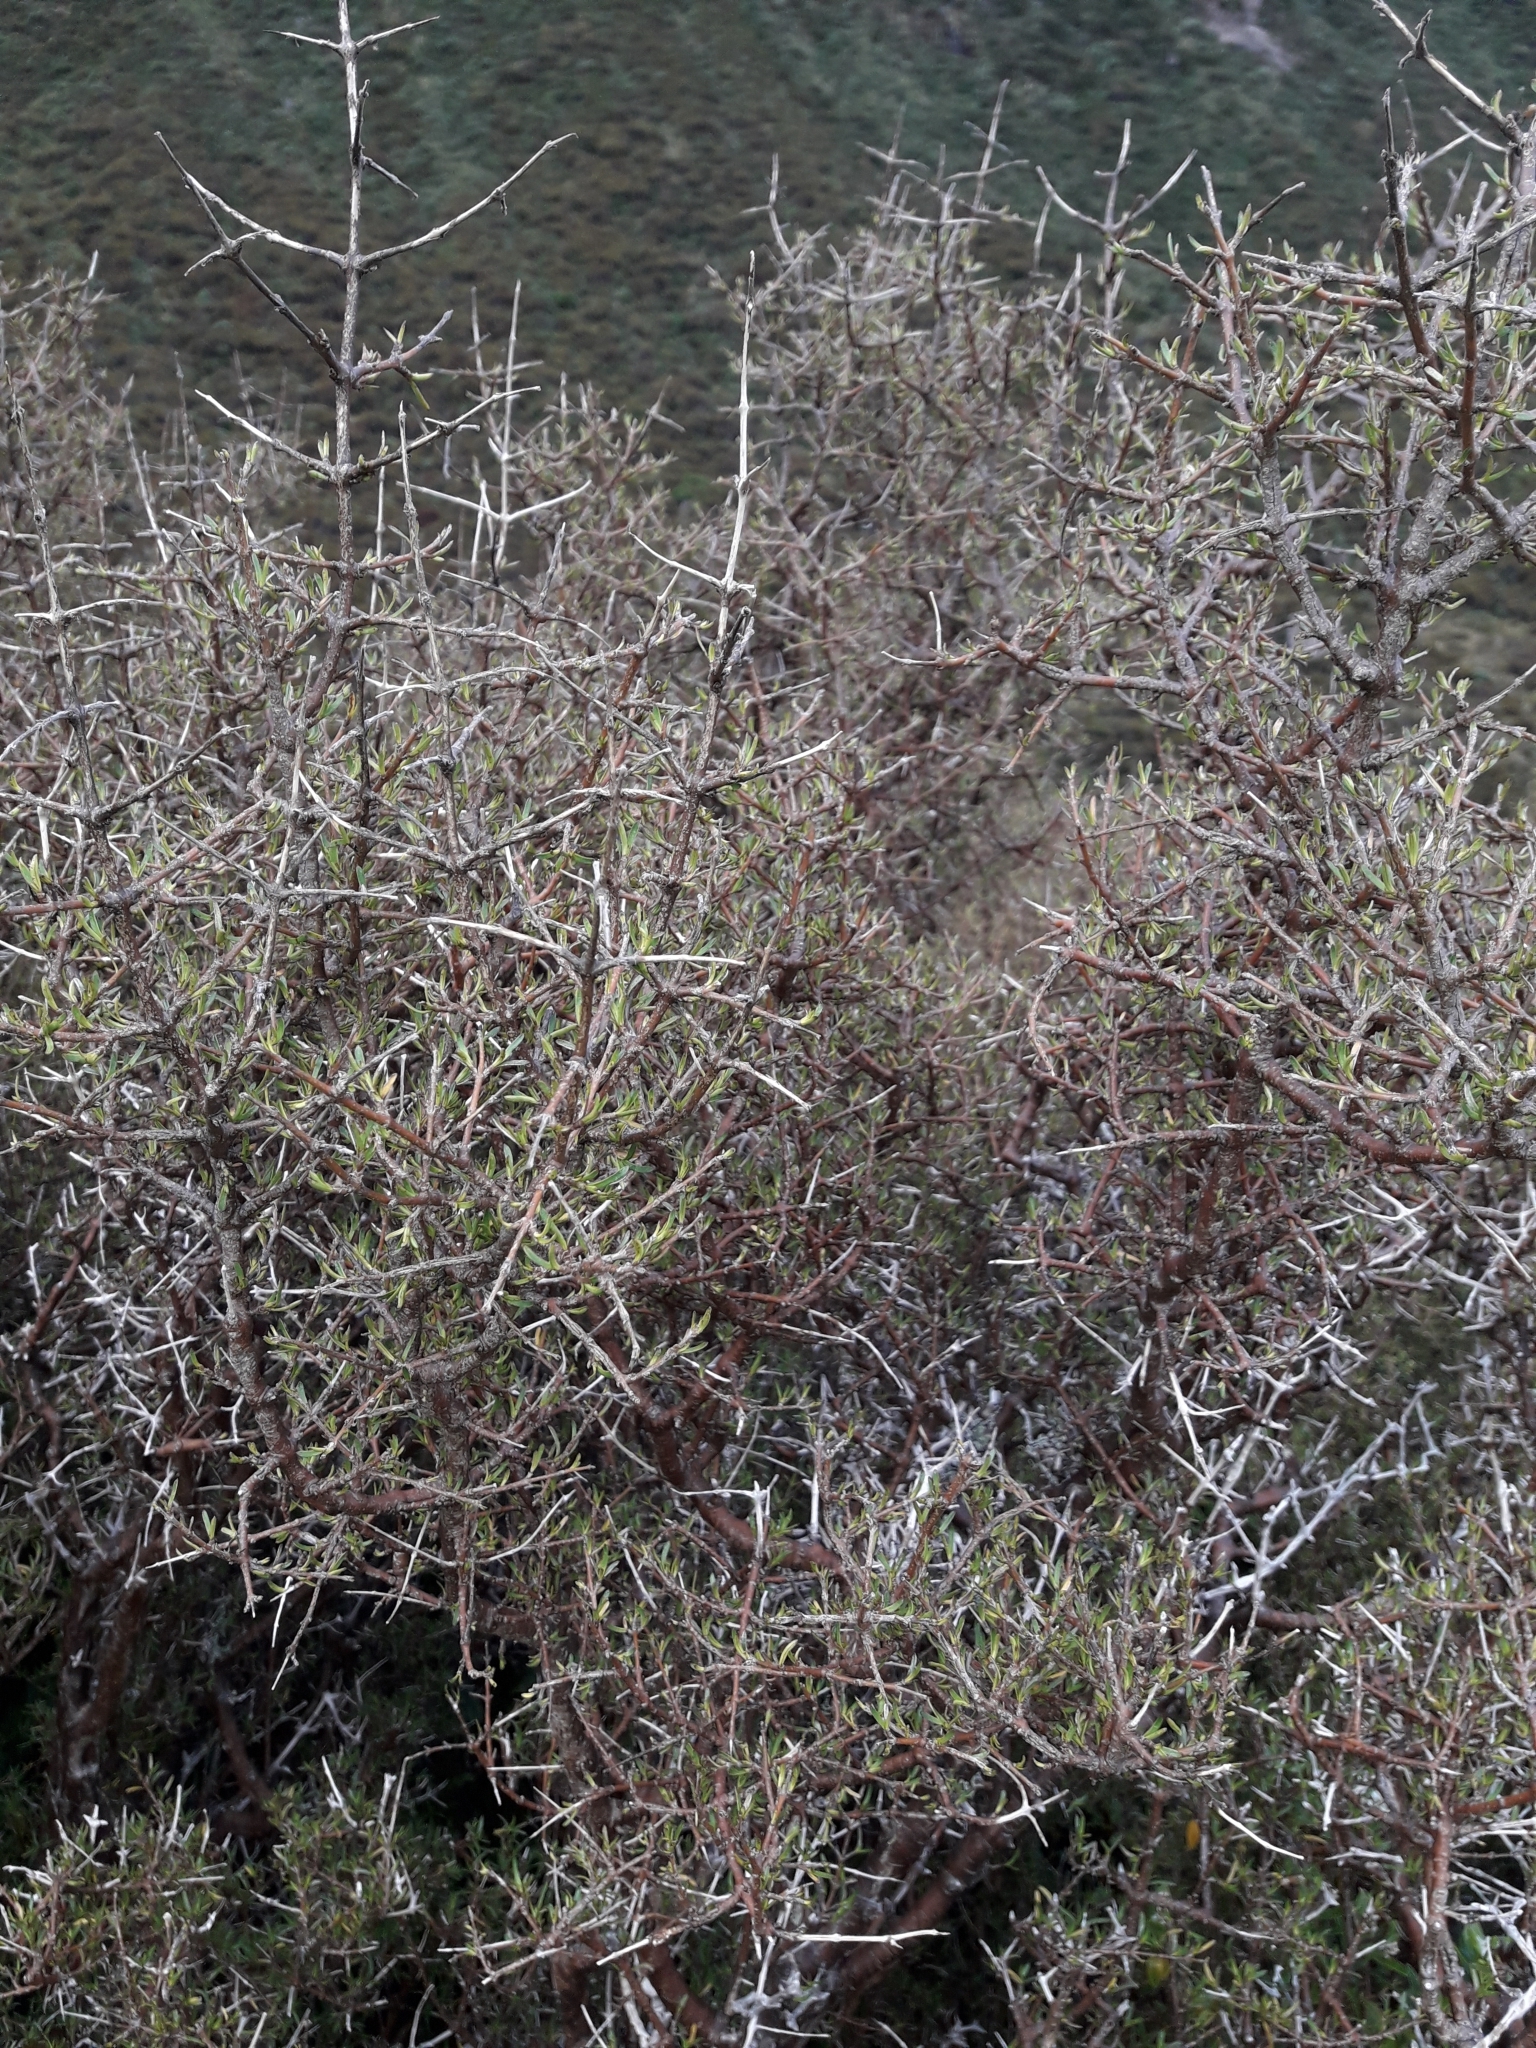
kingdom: Plantae
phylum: Tracheophyta
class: Magnoliopsida
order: Gentianales
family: Rubiaceae
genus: Coprosma
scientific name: Coprosma rugosa
